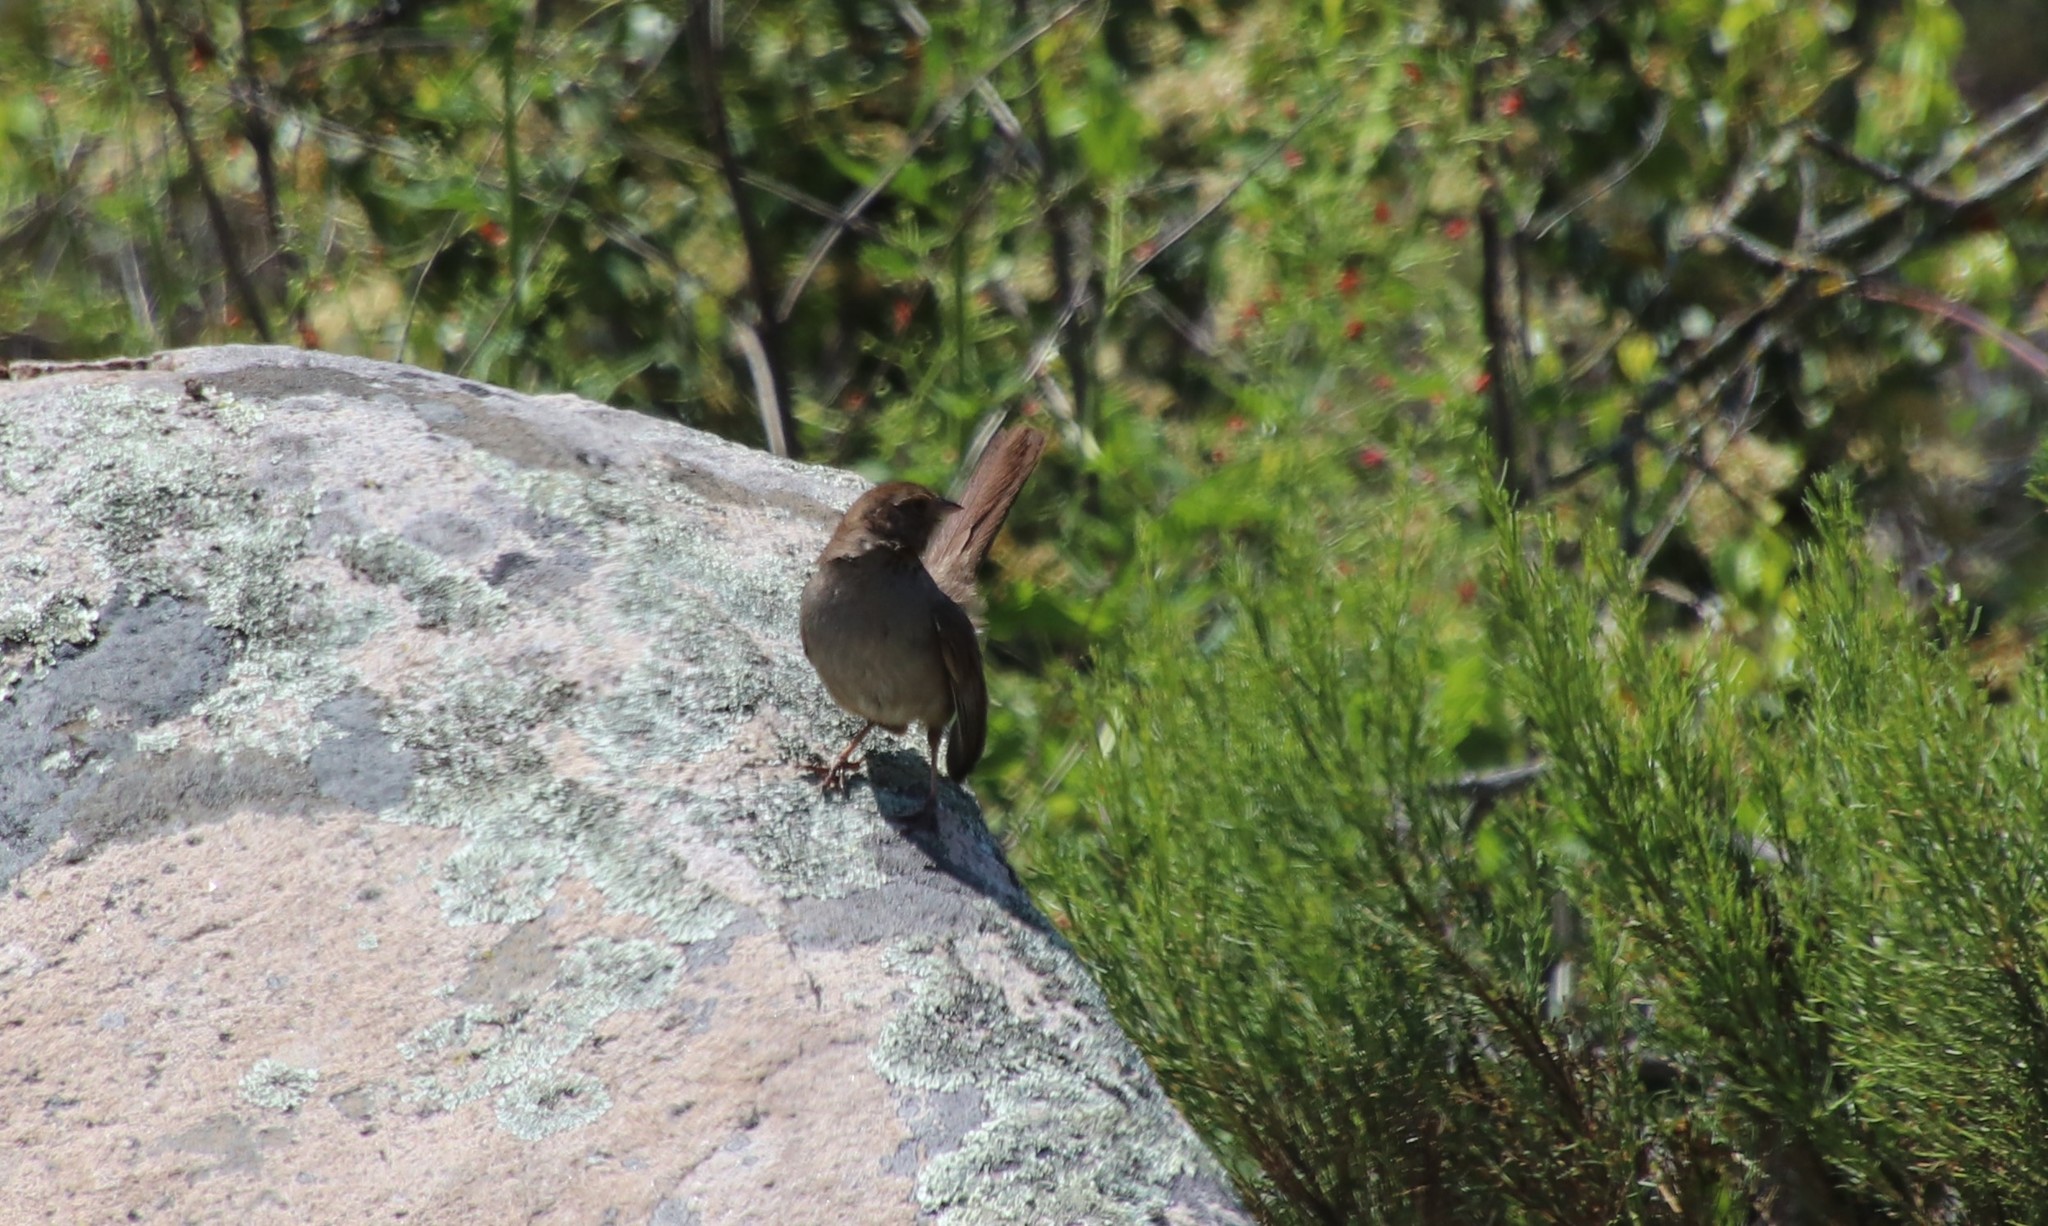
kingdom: Animalia
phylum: Chordata
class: Aves
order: Passeriformes
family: Passerellidae
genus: Melozone
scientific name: Melozone crissalis
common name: California towhee
